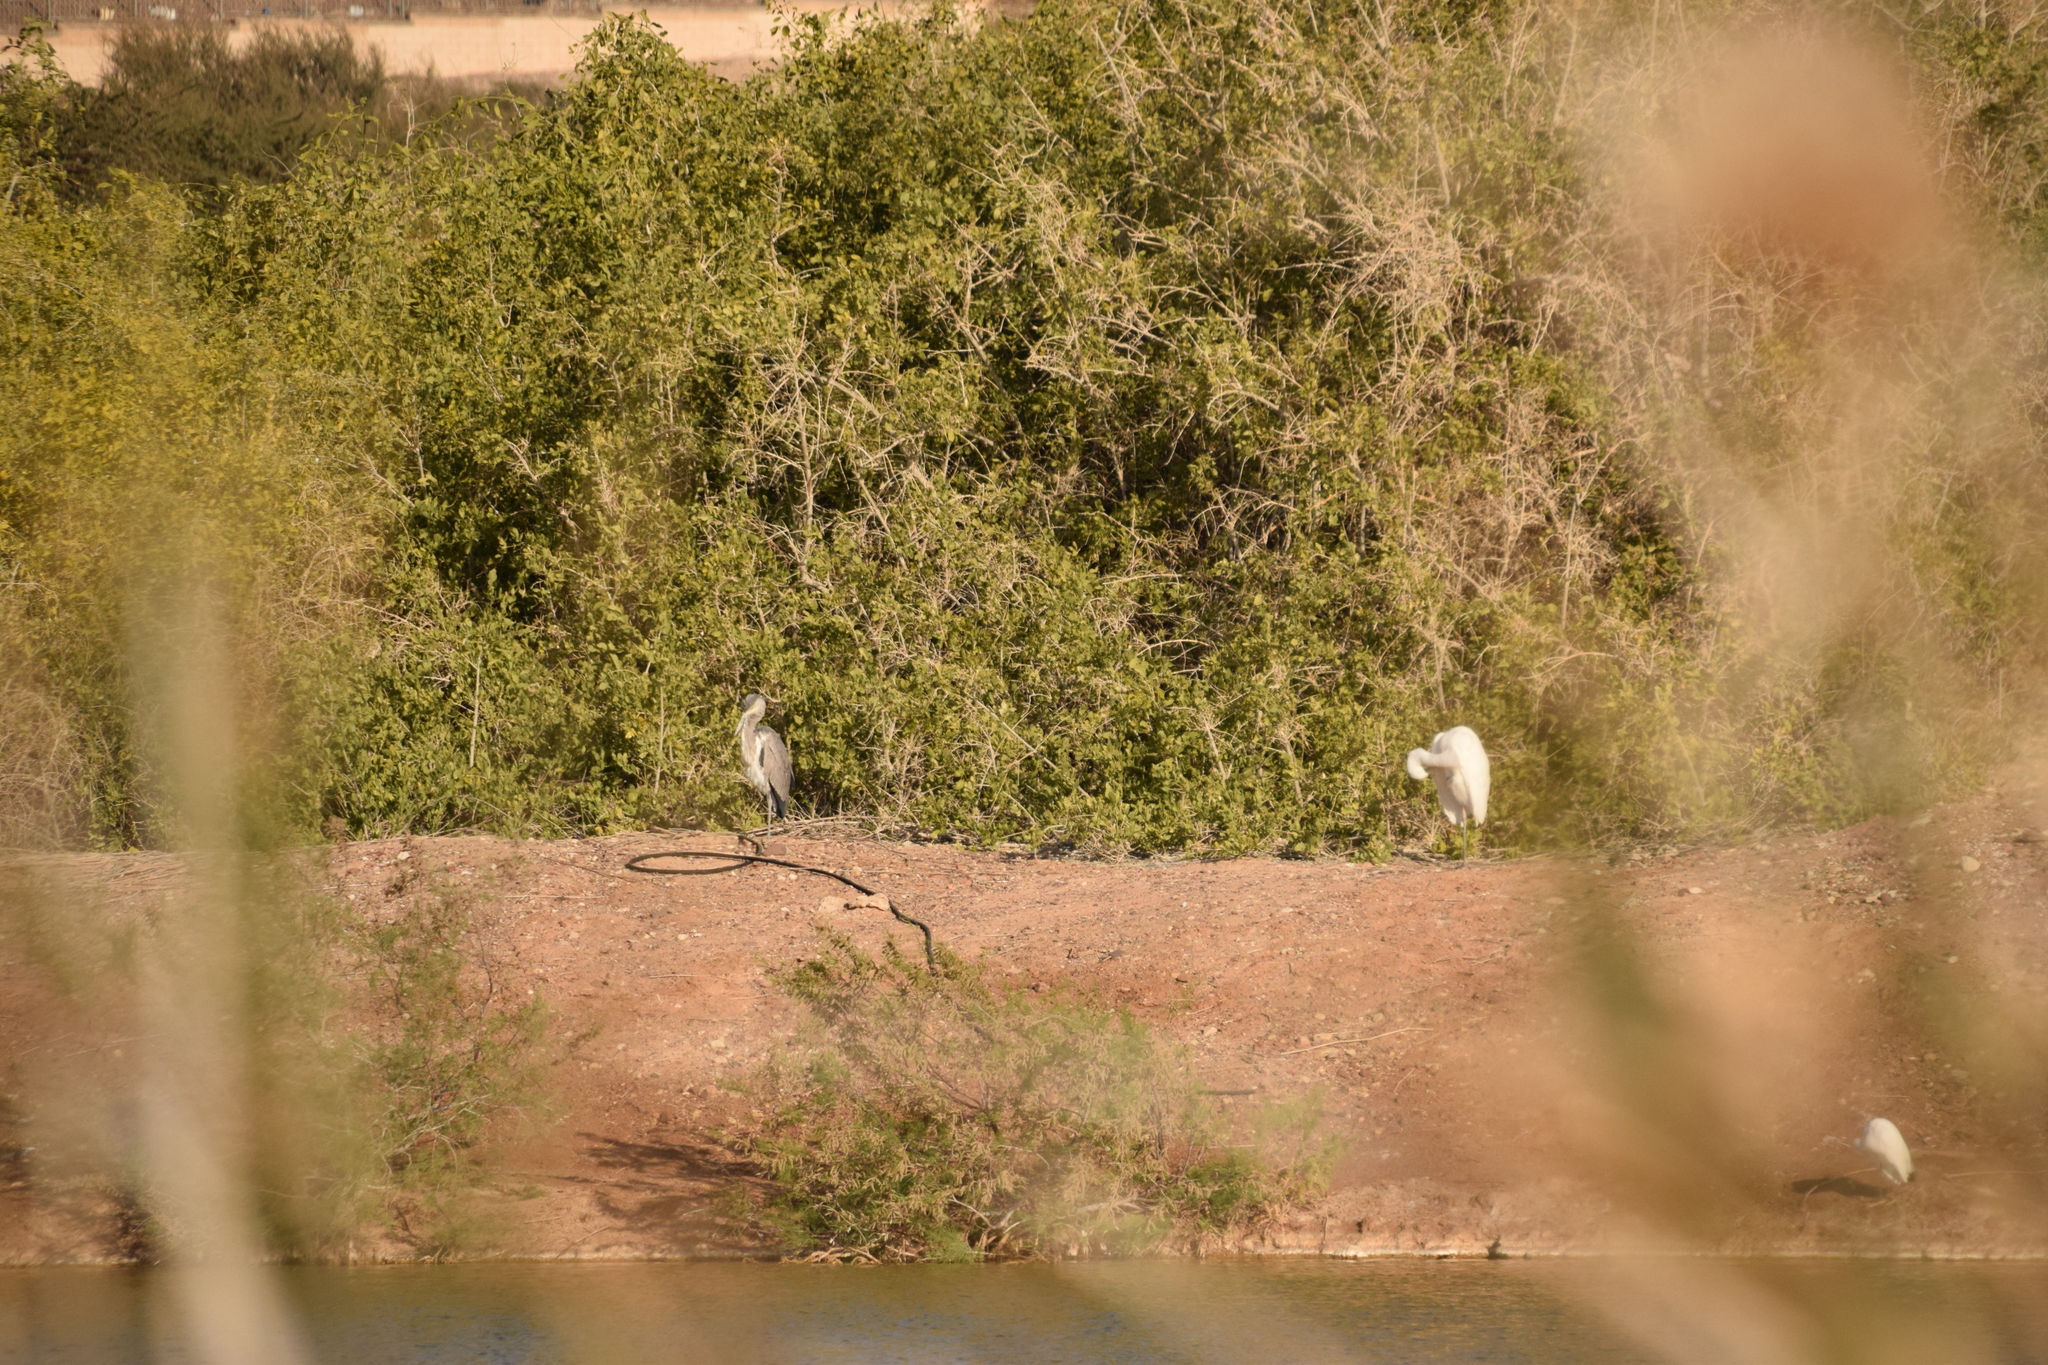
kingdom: Animalia
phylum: Chordata
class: Aves
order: Pelecaniformes
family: Ardeidae
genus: Ardea
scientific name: Ardea cinerea
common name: Grey heron
